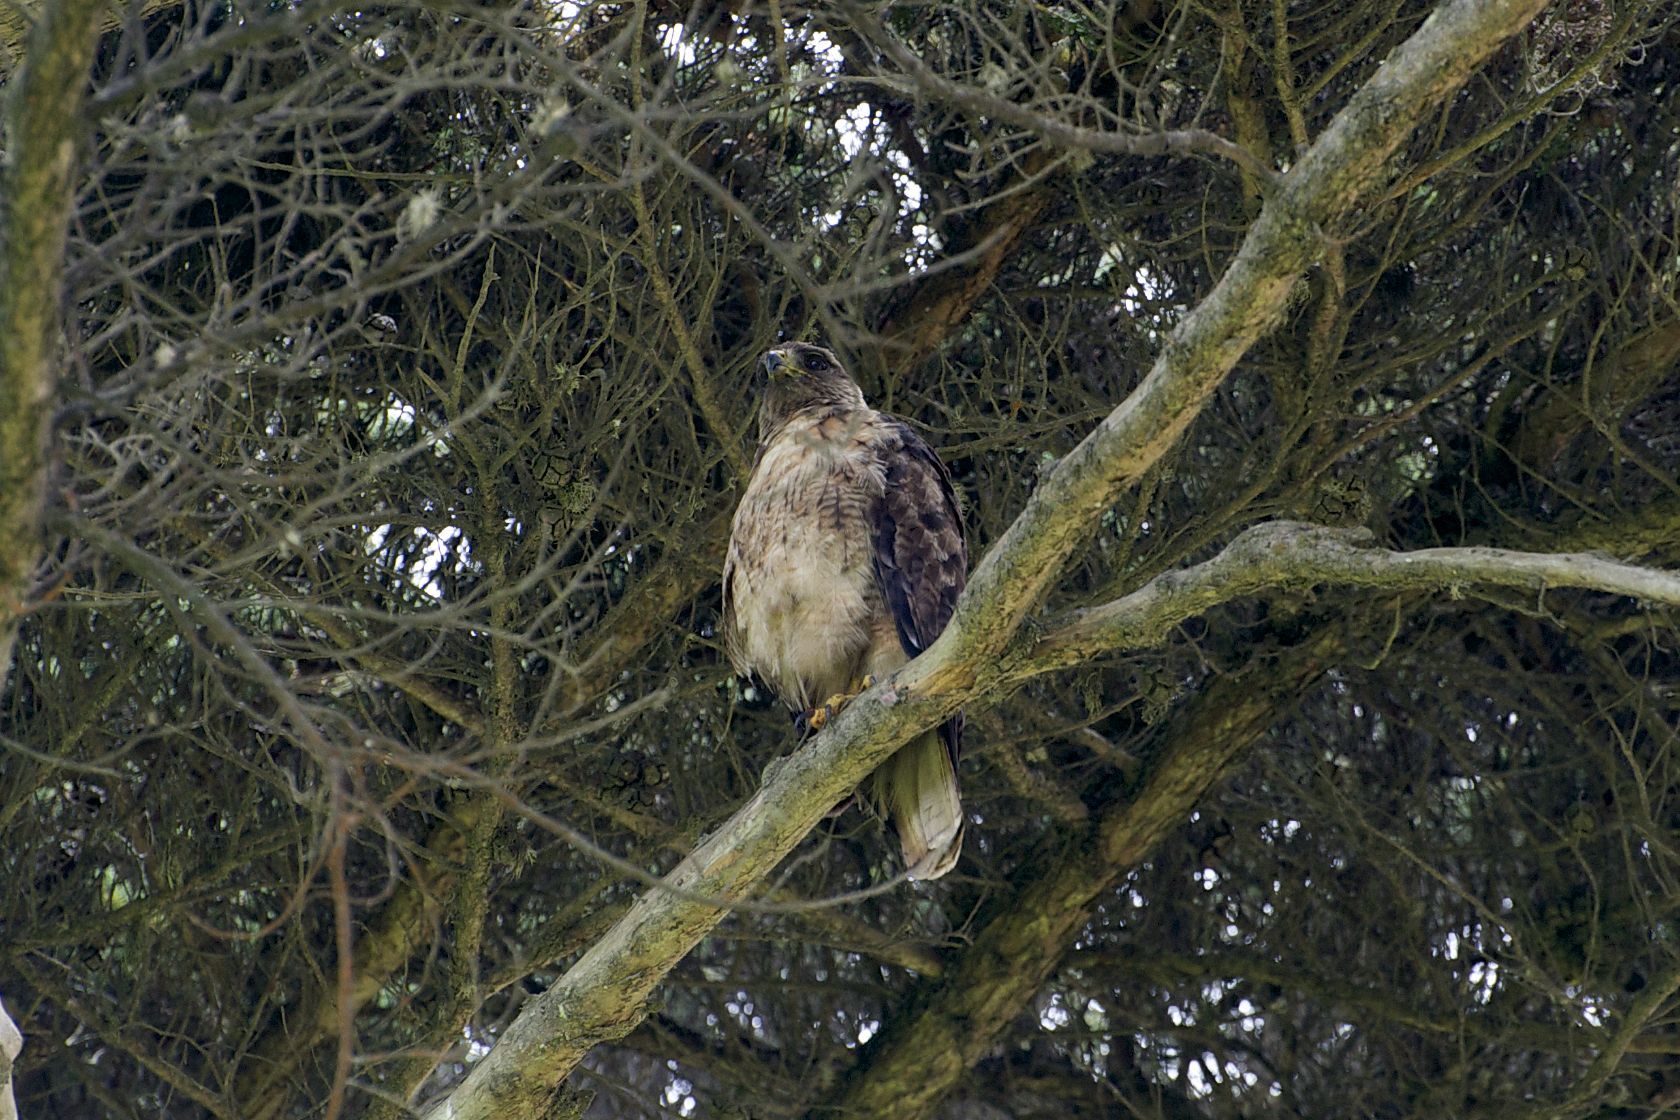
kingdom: Animalia
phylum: Chordata
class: Aves
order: Accipitriformes
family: Accipitridae
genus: Buteo
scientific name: Buteo jamaicensis
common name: Red-tailed hawk
